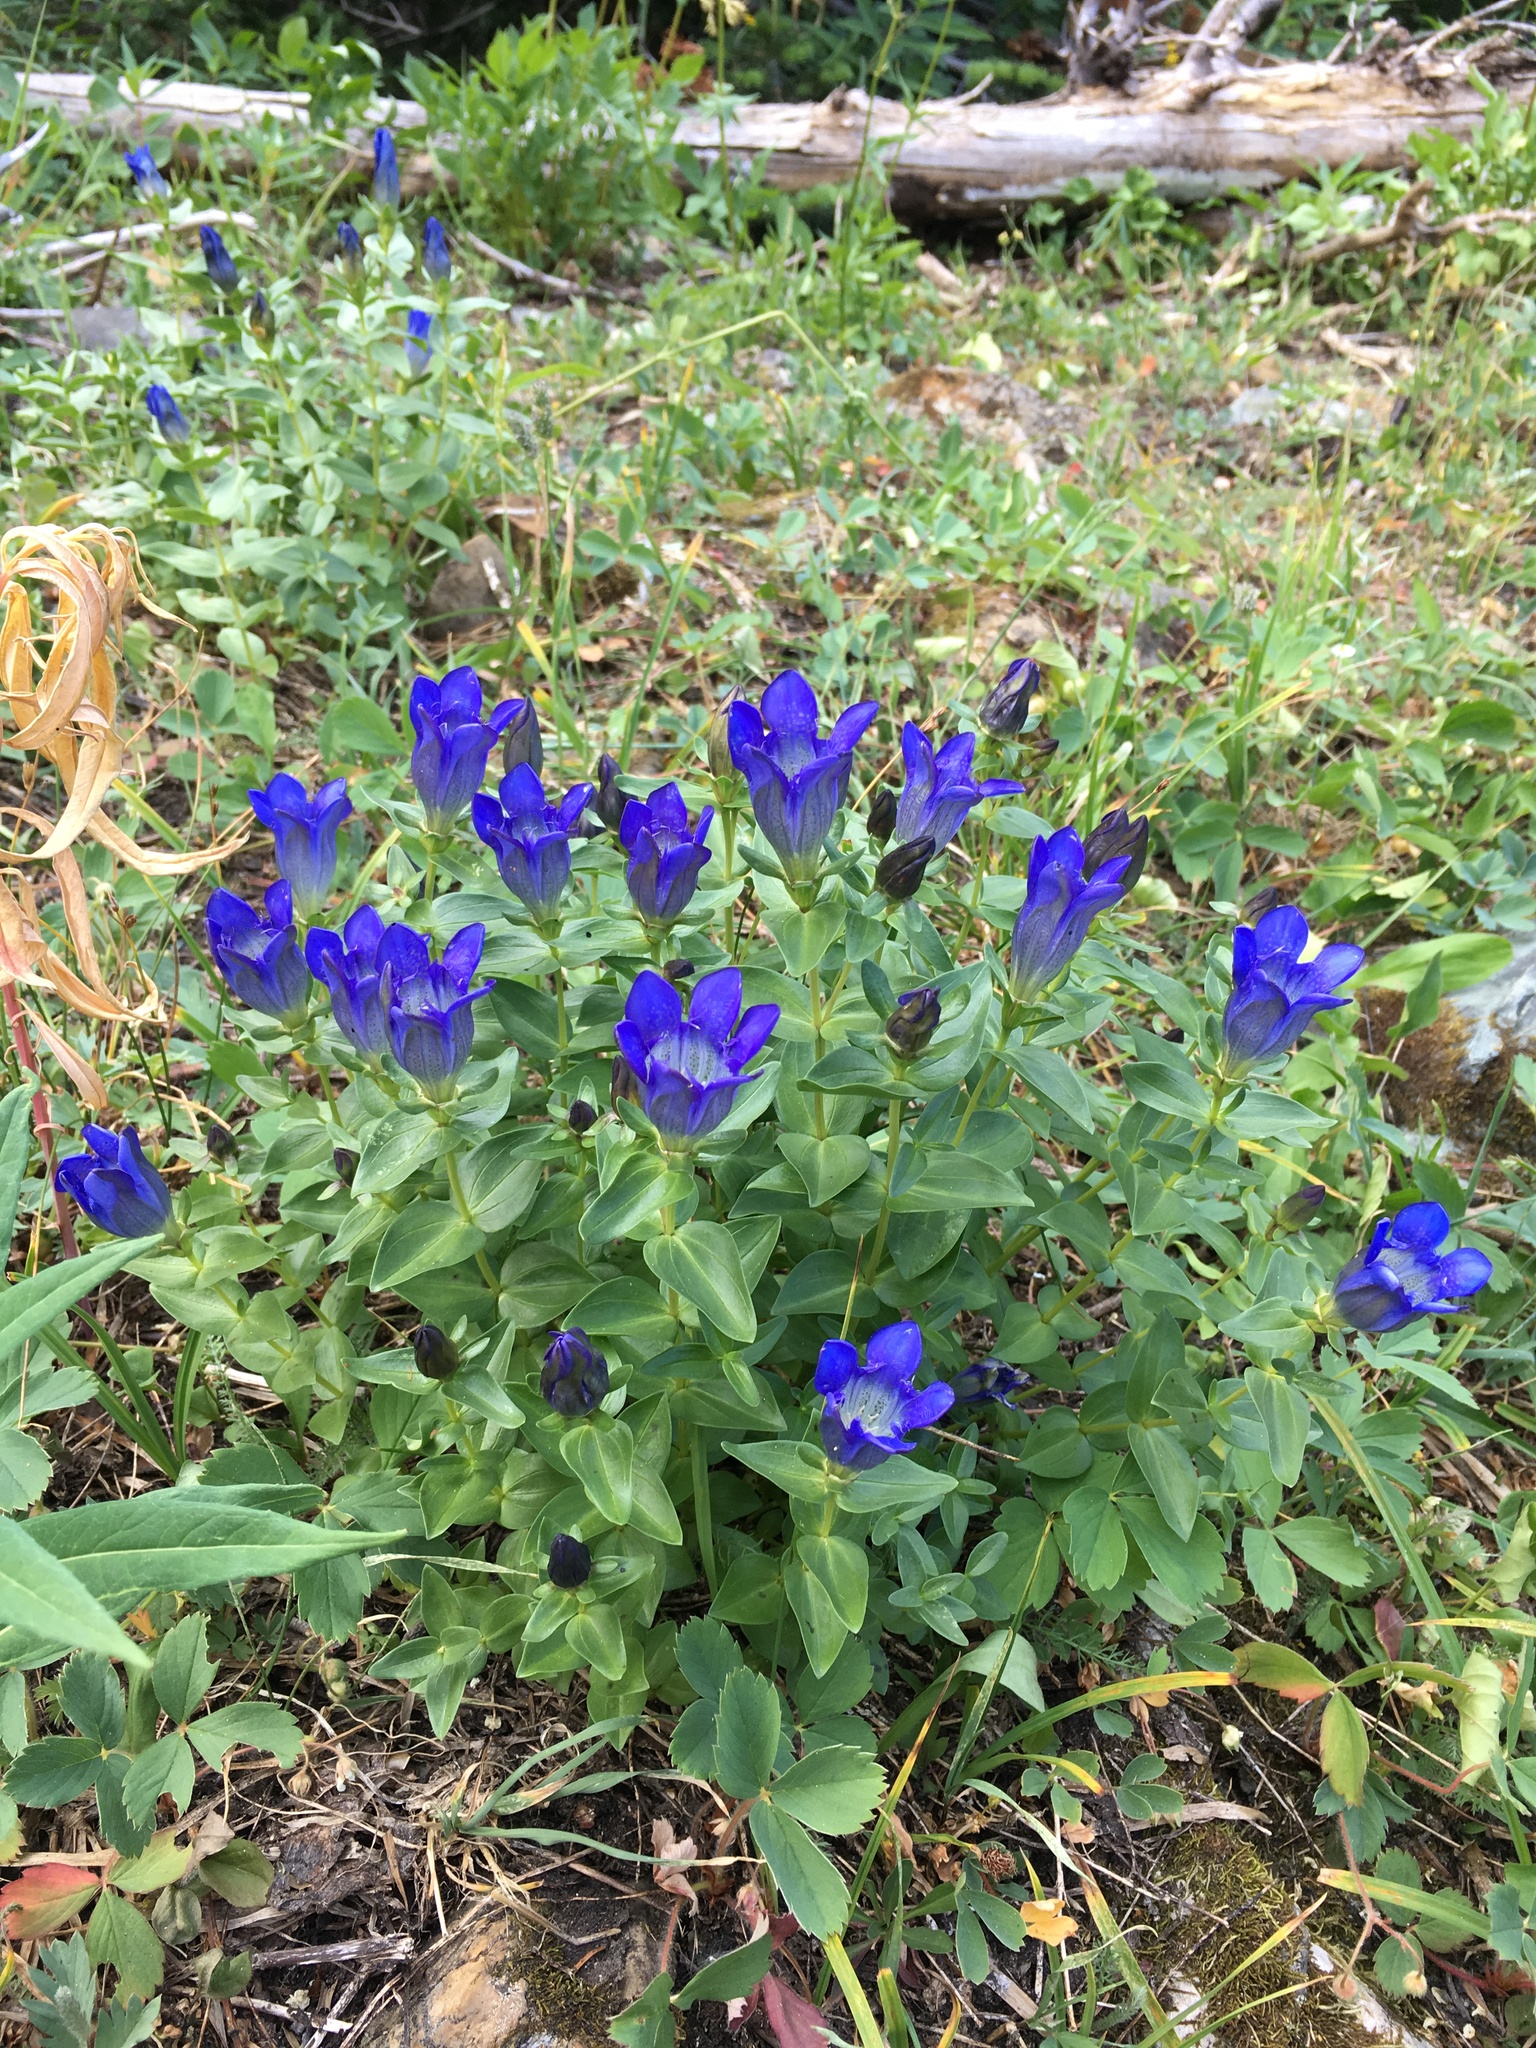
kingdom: Plantae
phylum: Tracheophyta
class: Magnoliopsida
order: Gentianales
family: Gentianaceae
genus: Gentiana
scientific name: Gentiana calycosa
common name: Rainier pleated gentian
